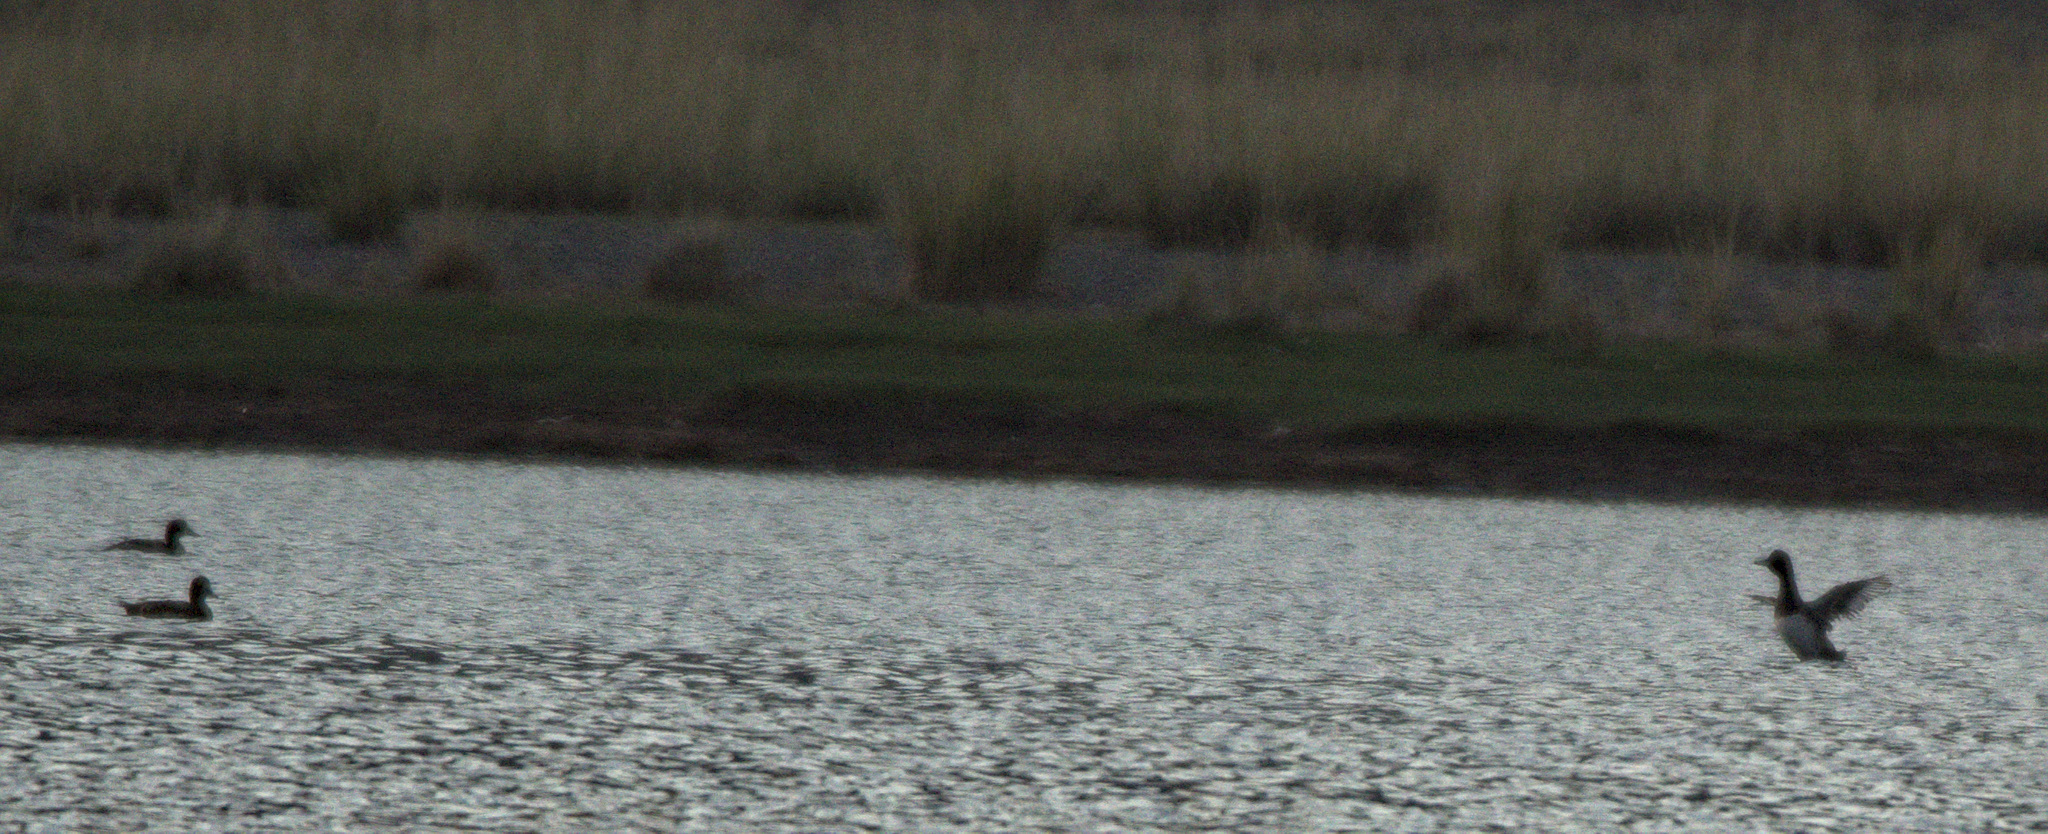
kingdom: Animalia
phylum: Chordata
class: Aves
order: Anseriformes
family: Anatidae
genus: Mareca
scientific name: Mareca penelope
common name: Eurasian wigeon
